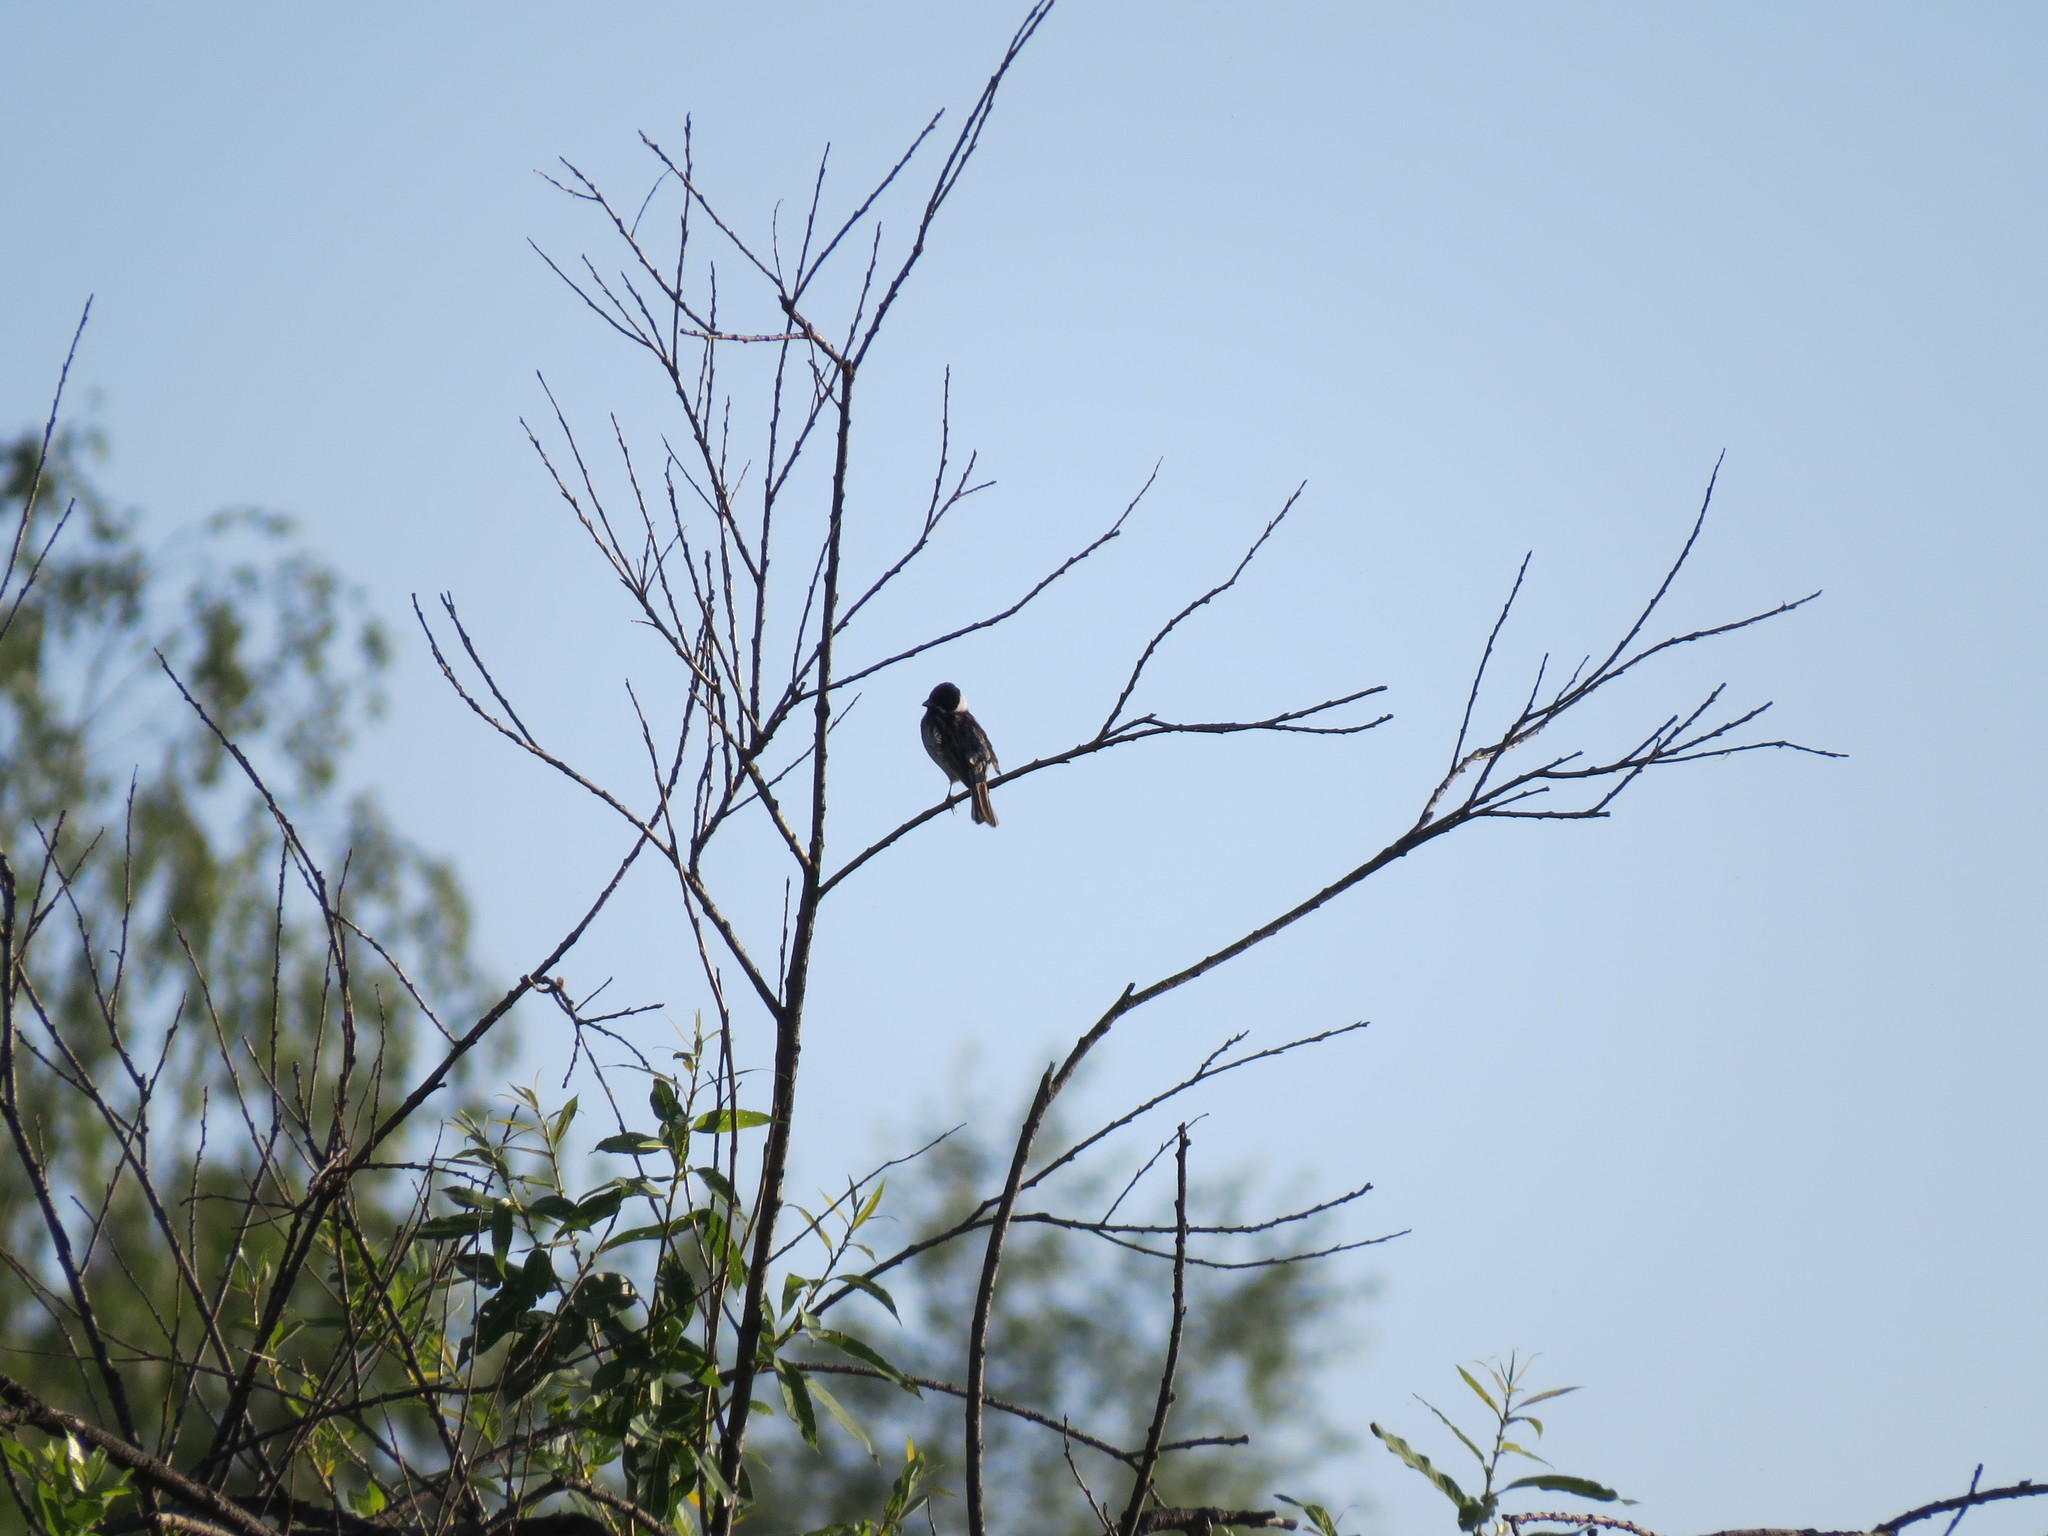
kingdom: Animalia
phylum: Chordata
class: Aves
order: Passeriformes
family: Emberizidae
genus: Emberiza
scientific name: Emberiza schoeniclus
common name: Reed bunting
